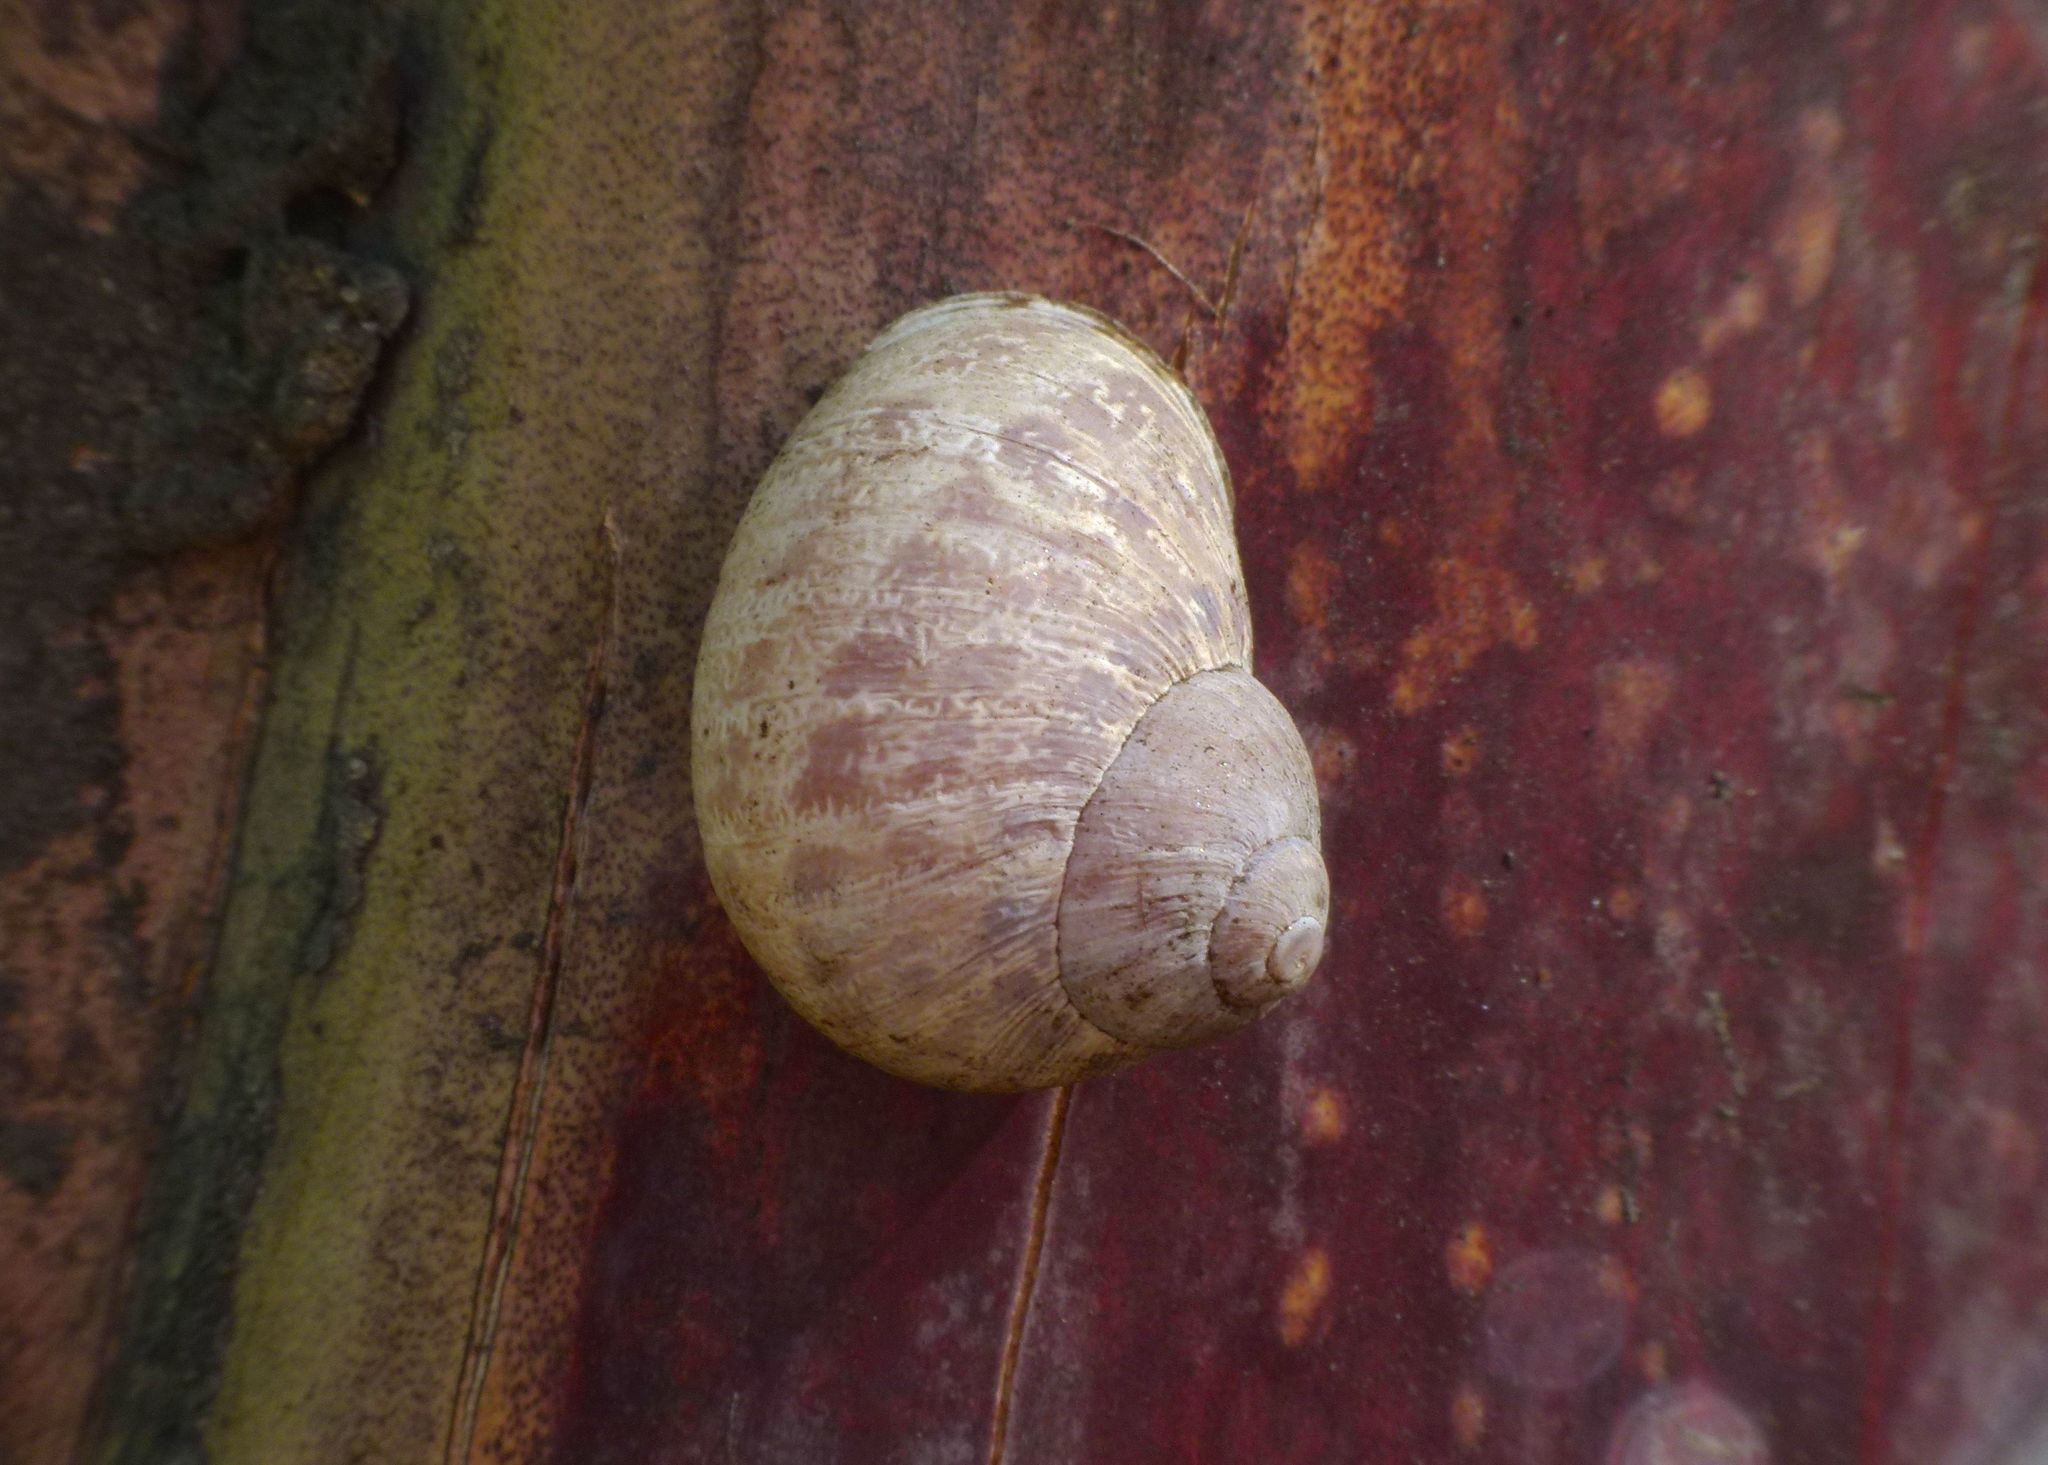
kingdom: Animalia
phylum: Mollusca
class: Gastropoda
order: Stylommatophora
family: Helicidae
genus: Cornu
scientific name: Cornu aspersum
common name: Brown garden snail
